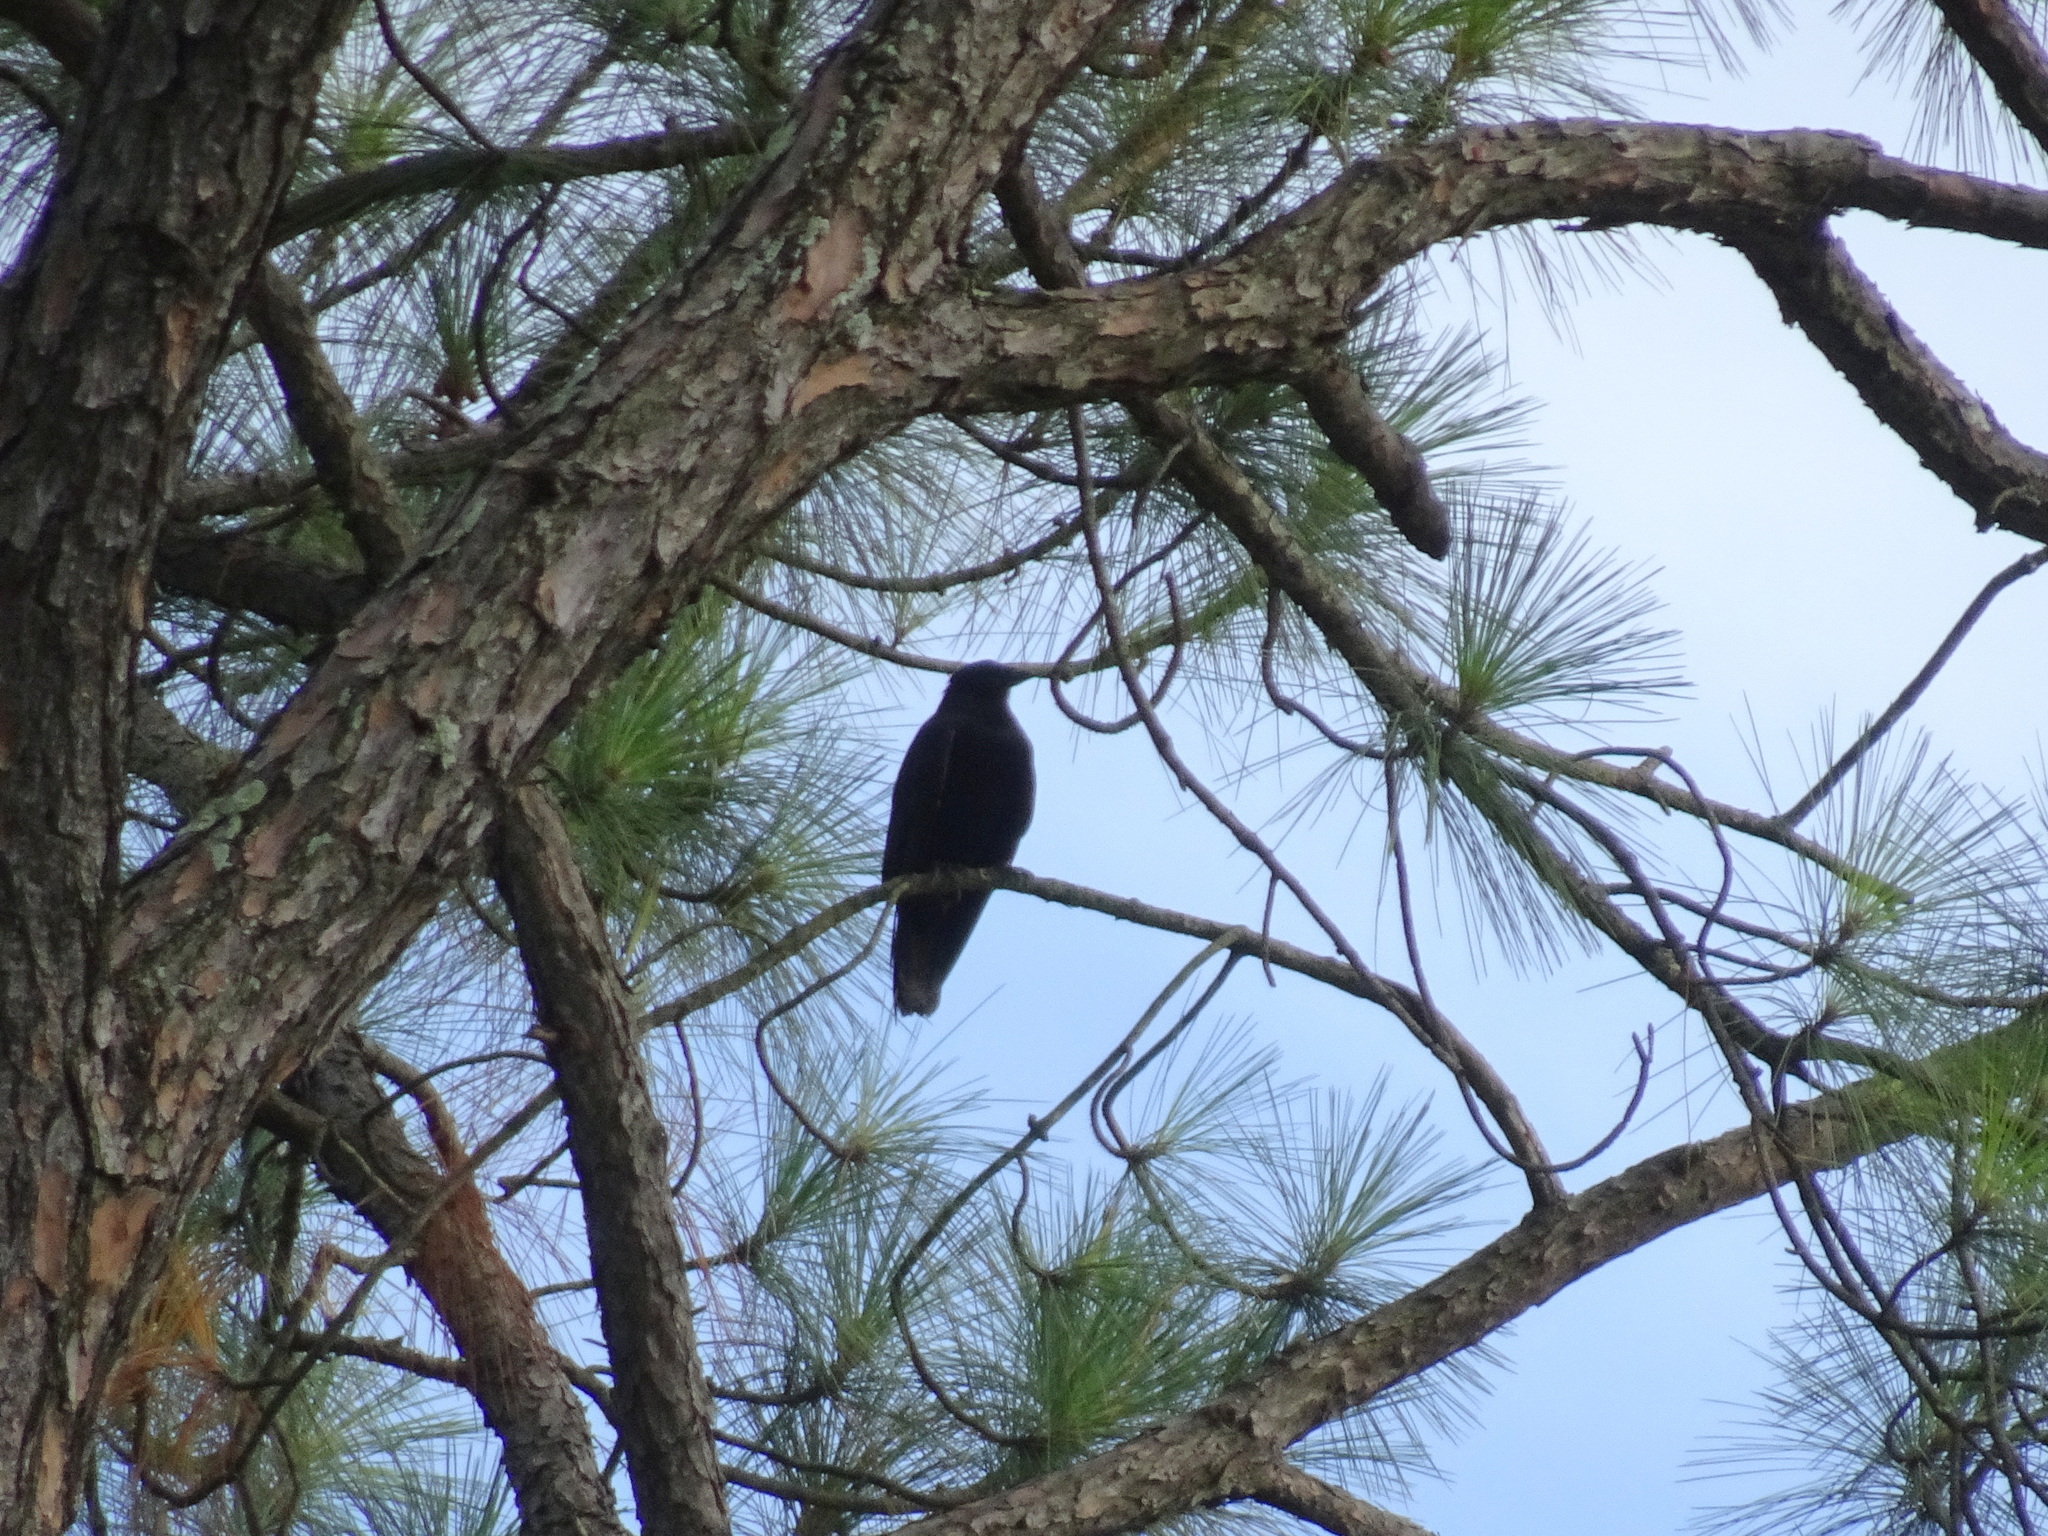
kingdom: Animalia
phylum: Chordata
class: Aves
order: Passeriformes
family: Corvidae
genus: Corvus
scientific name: Corvus ossifragus
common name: Fish crow
